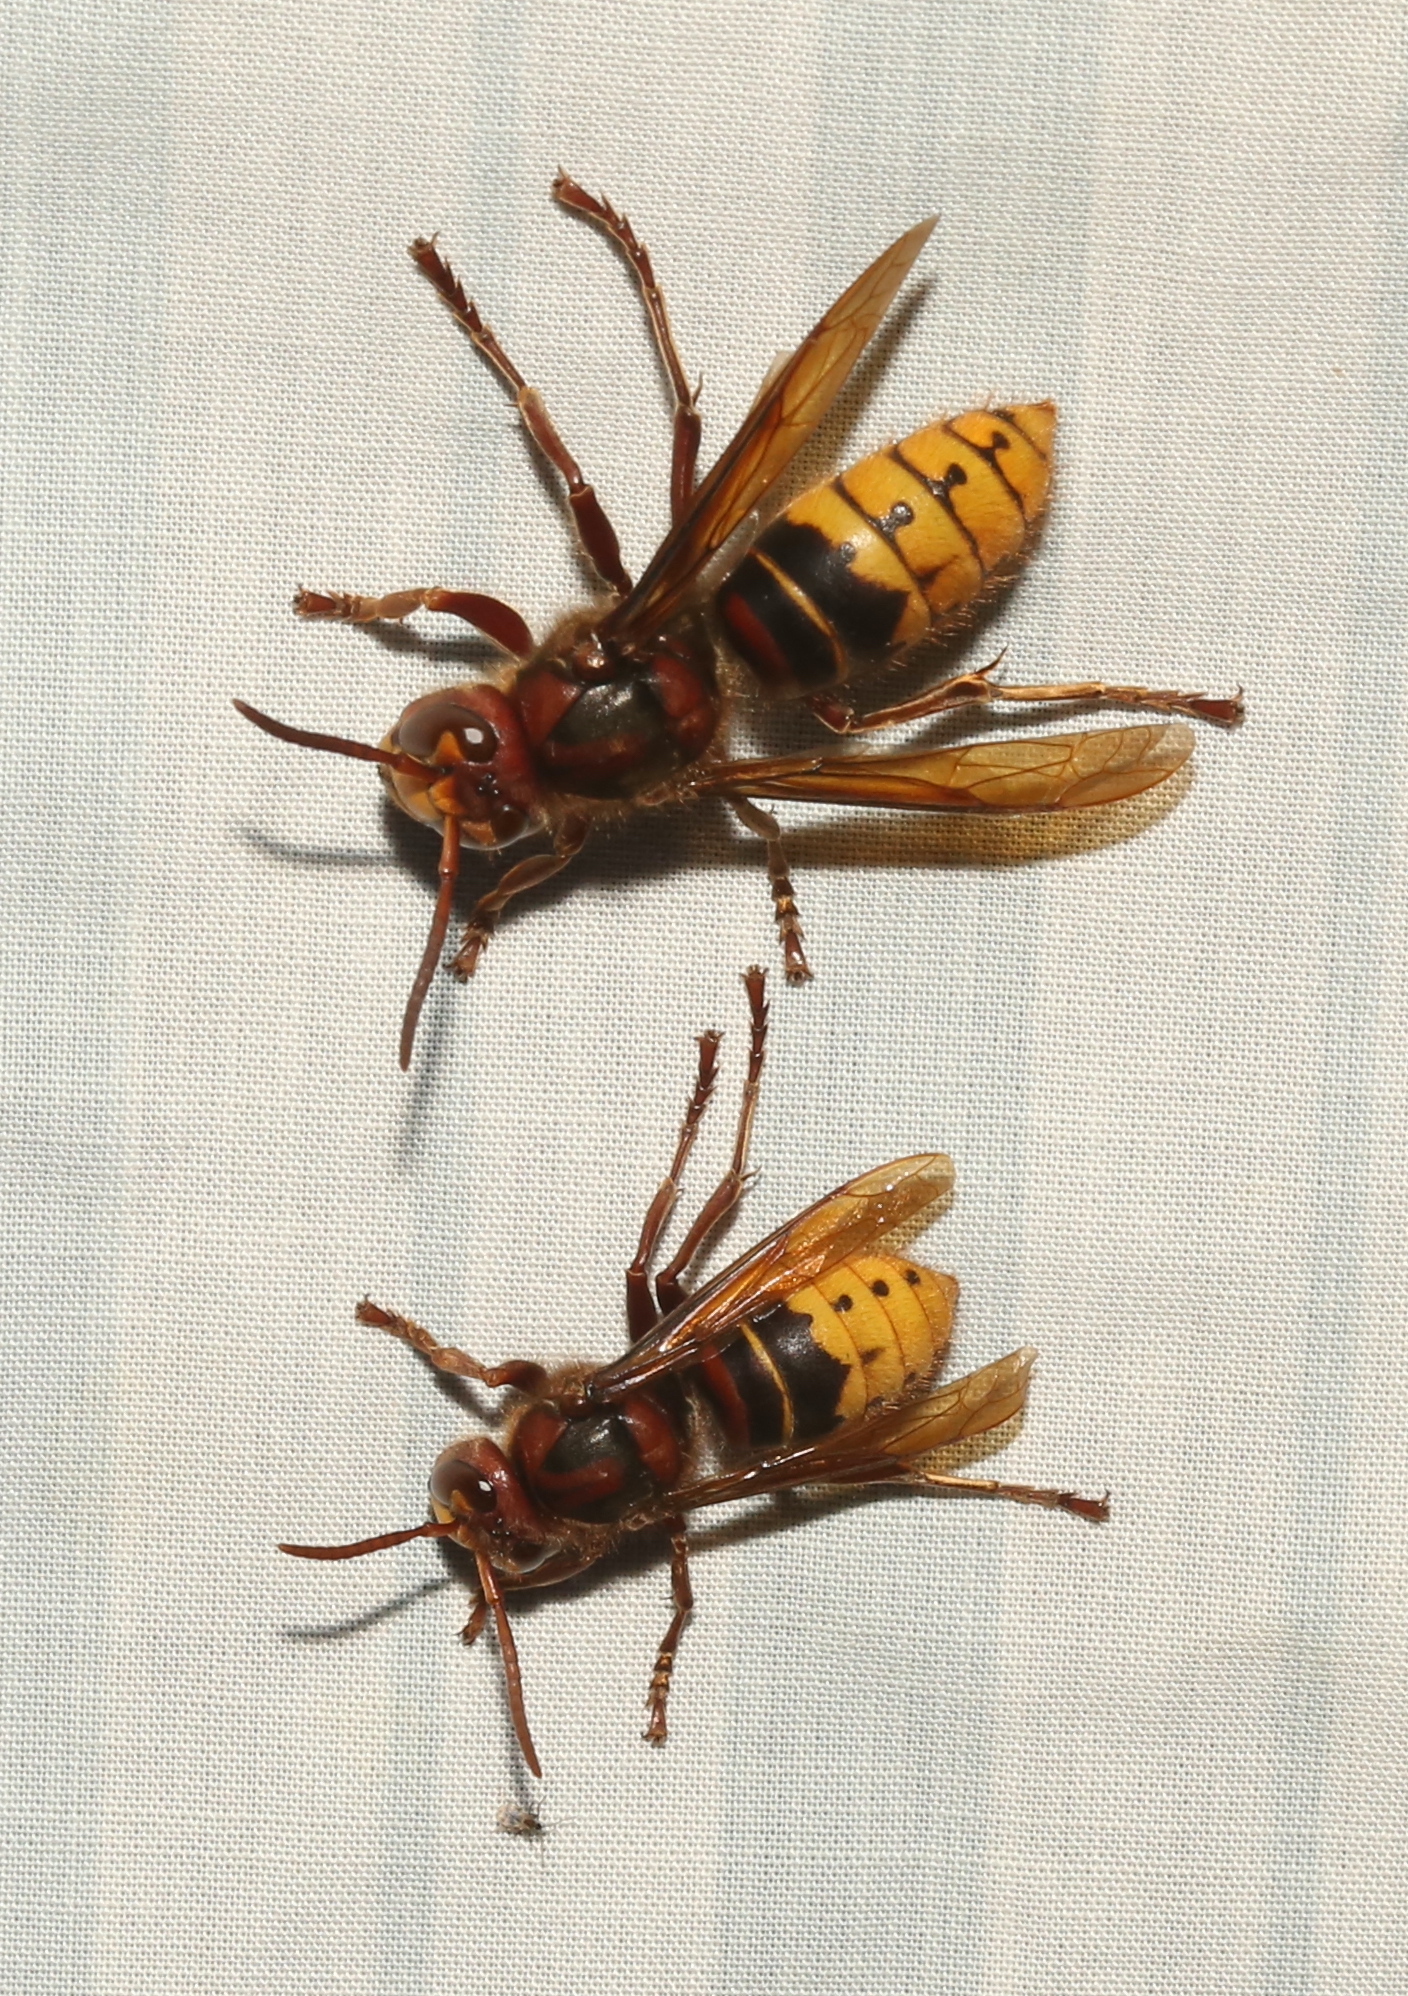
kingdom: Animalia
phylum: Arthropoda
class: Insecta
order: Hymenoptera
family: Vespidae
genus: Vespa
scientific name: Vespa crabro
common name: Hornet
